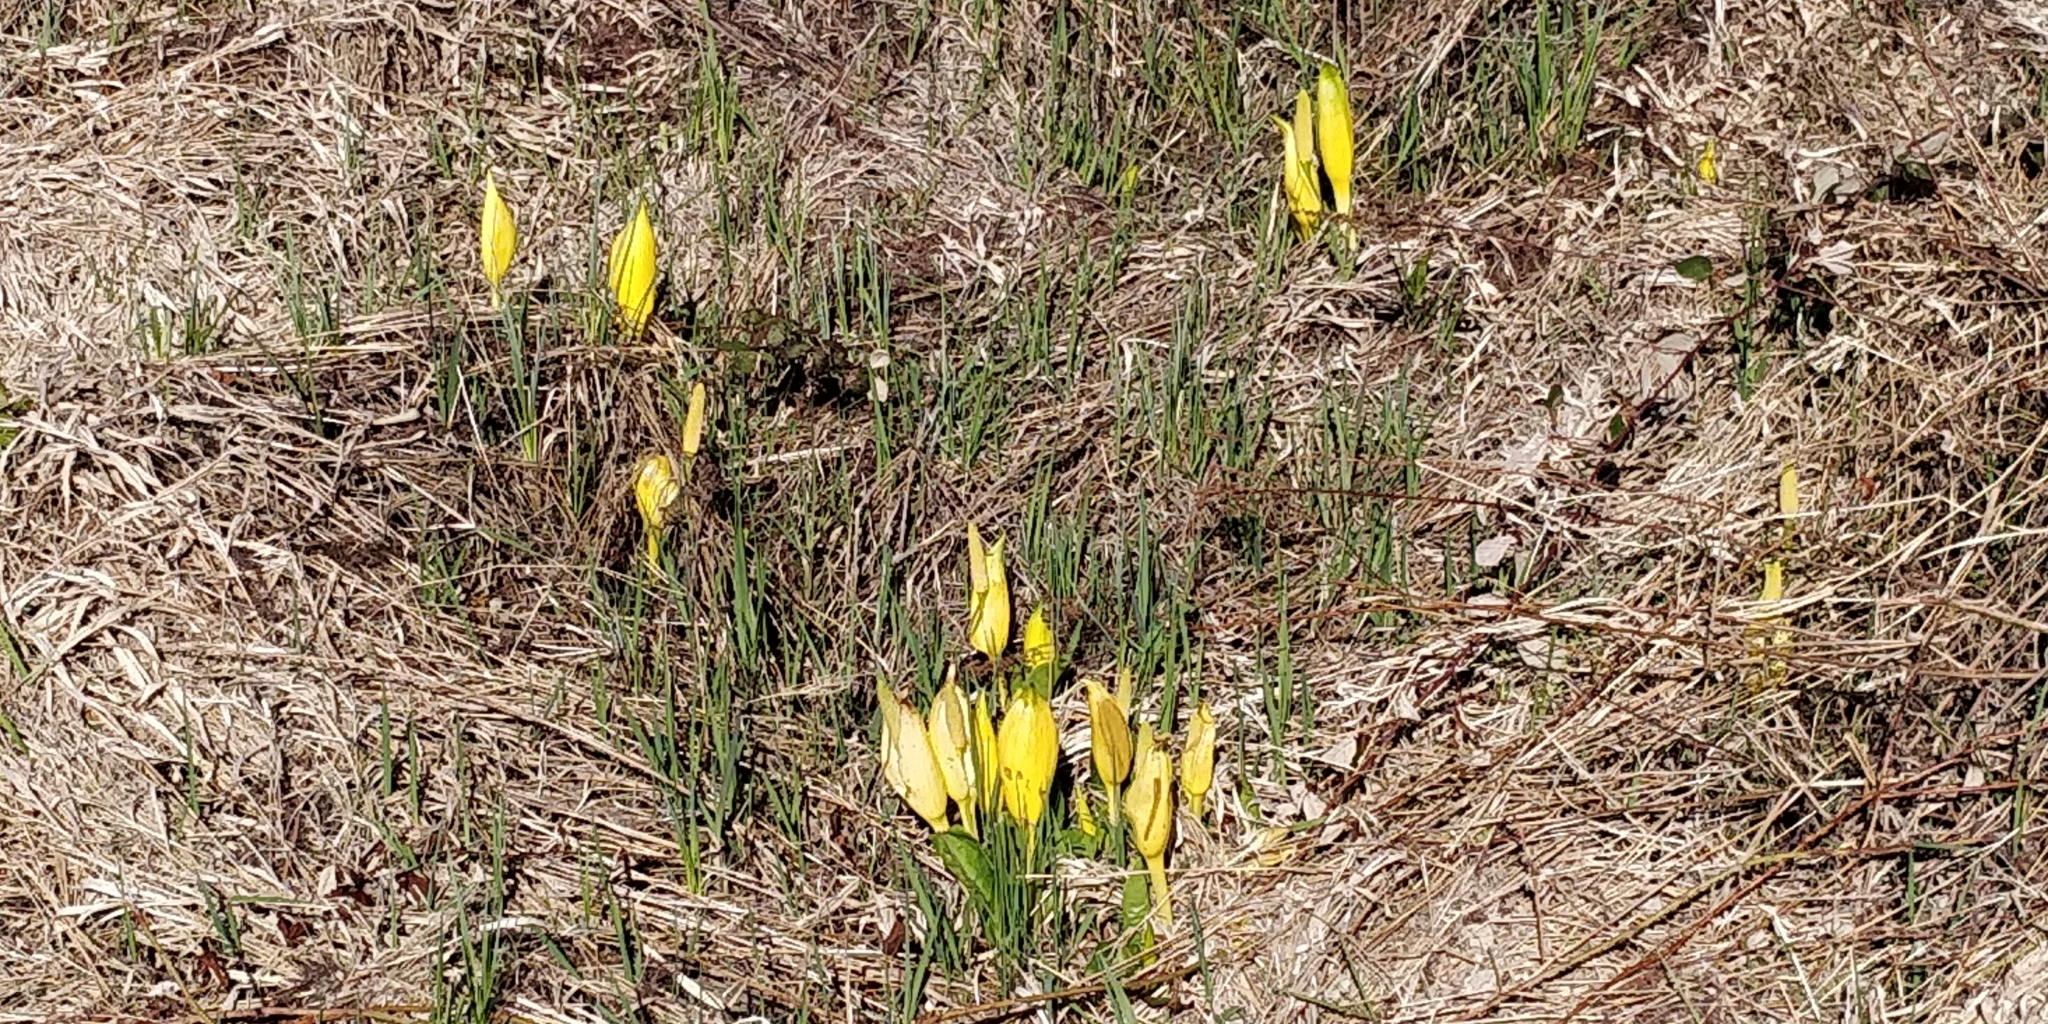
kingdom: Plantae
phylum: Tracheophyta
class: Liliopsida
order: Alismatales
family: Araceae
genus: Lysichiton
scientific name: Lysichiton americanus
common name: American skunk cabbage
